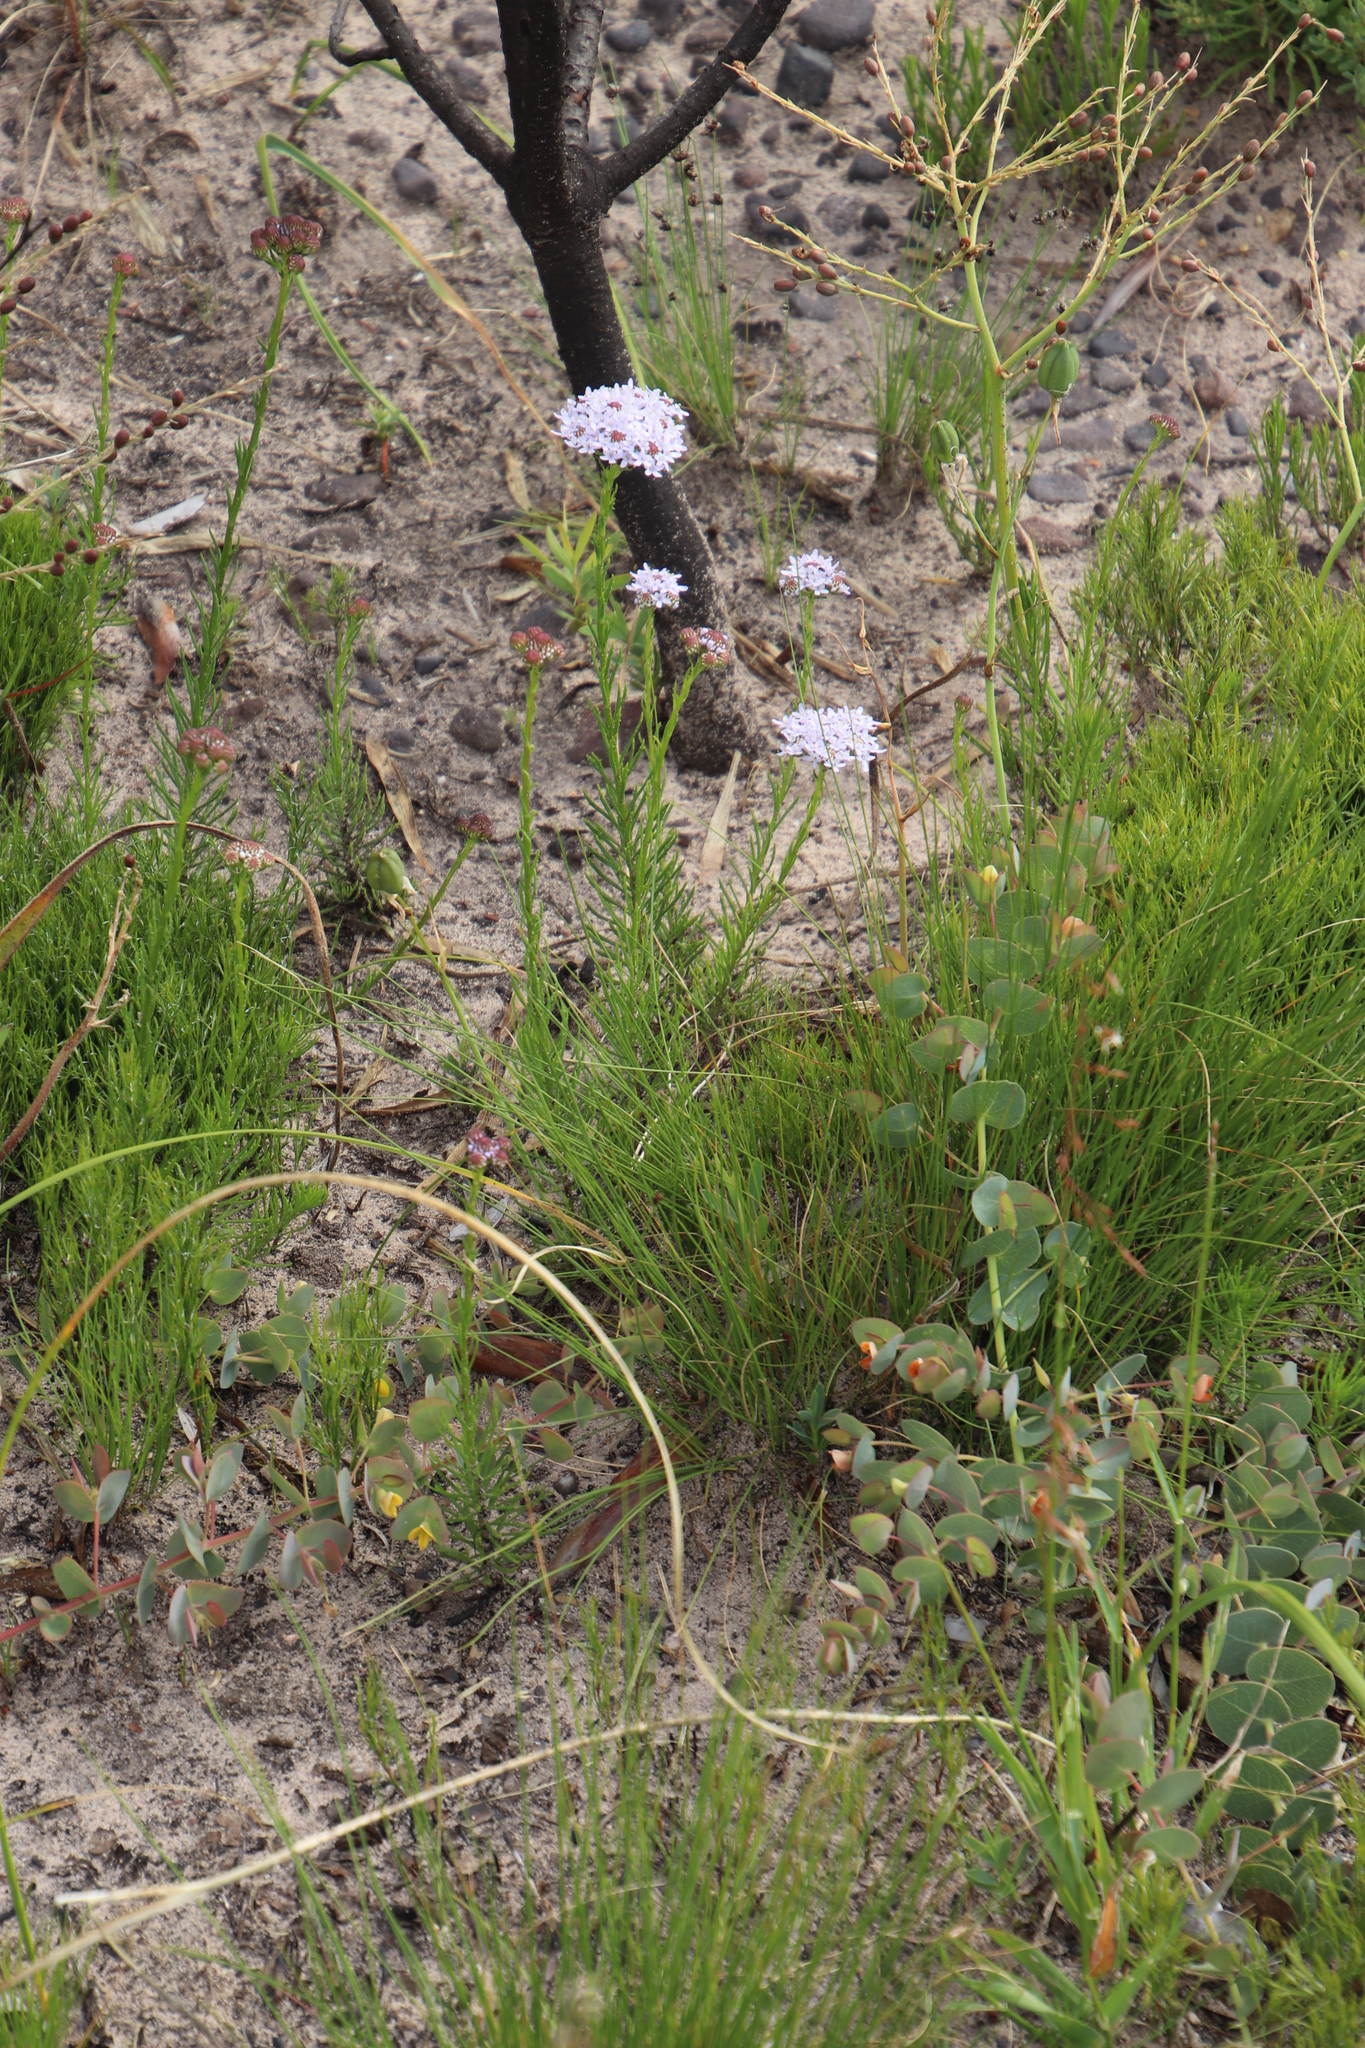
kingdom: Plantae
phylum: Tracheophyta
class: Magnoliopsida
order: Lamiales
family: Scrophulariaceae
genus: Pseudoselago
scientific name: Pseudoselago spuria
